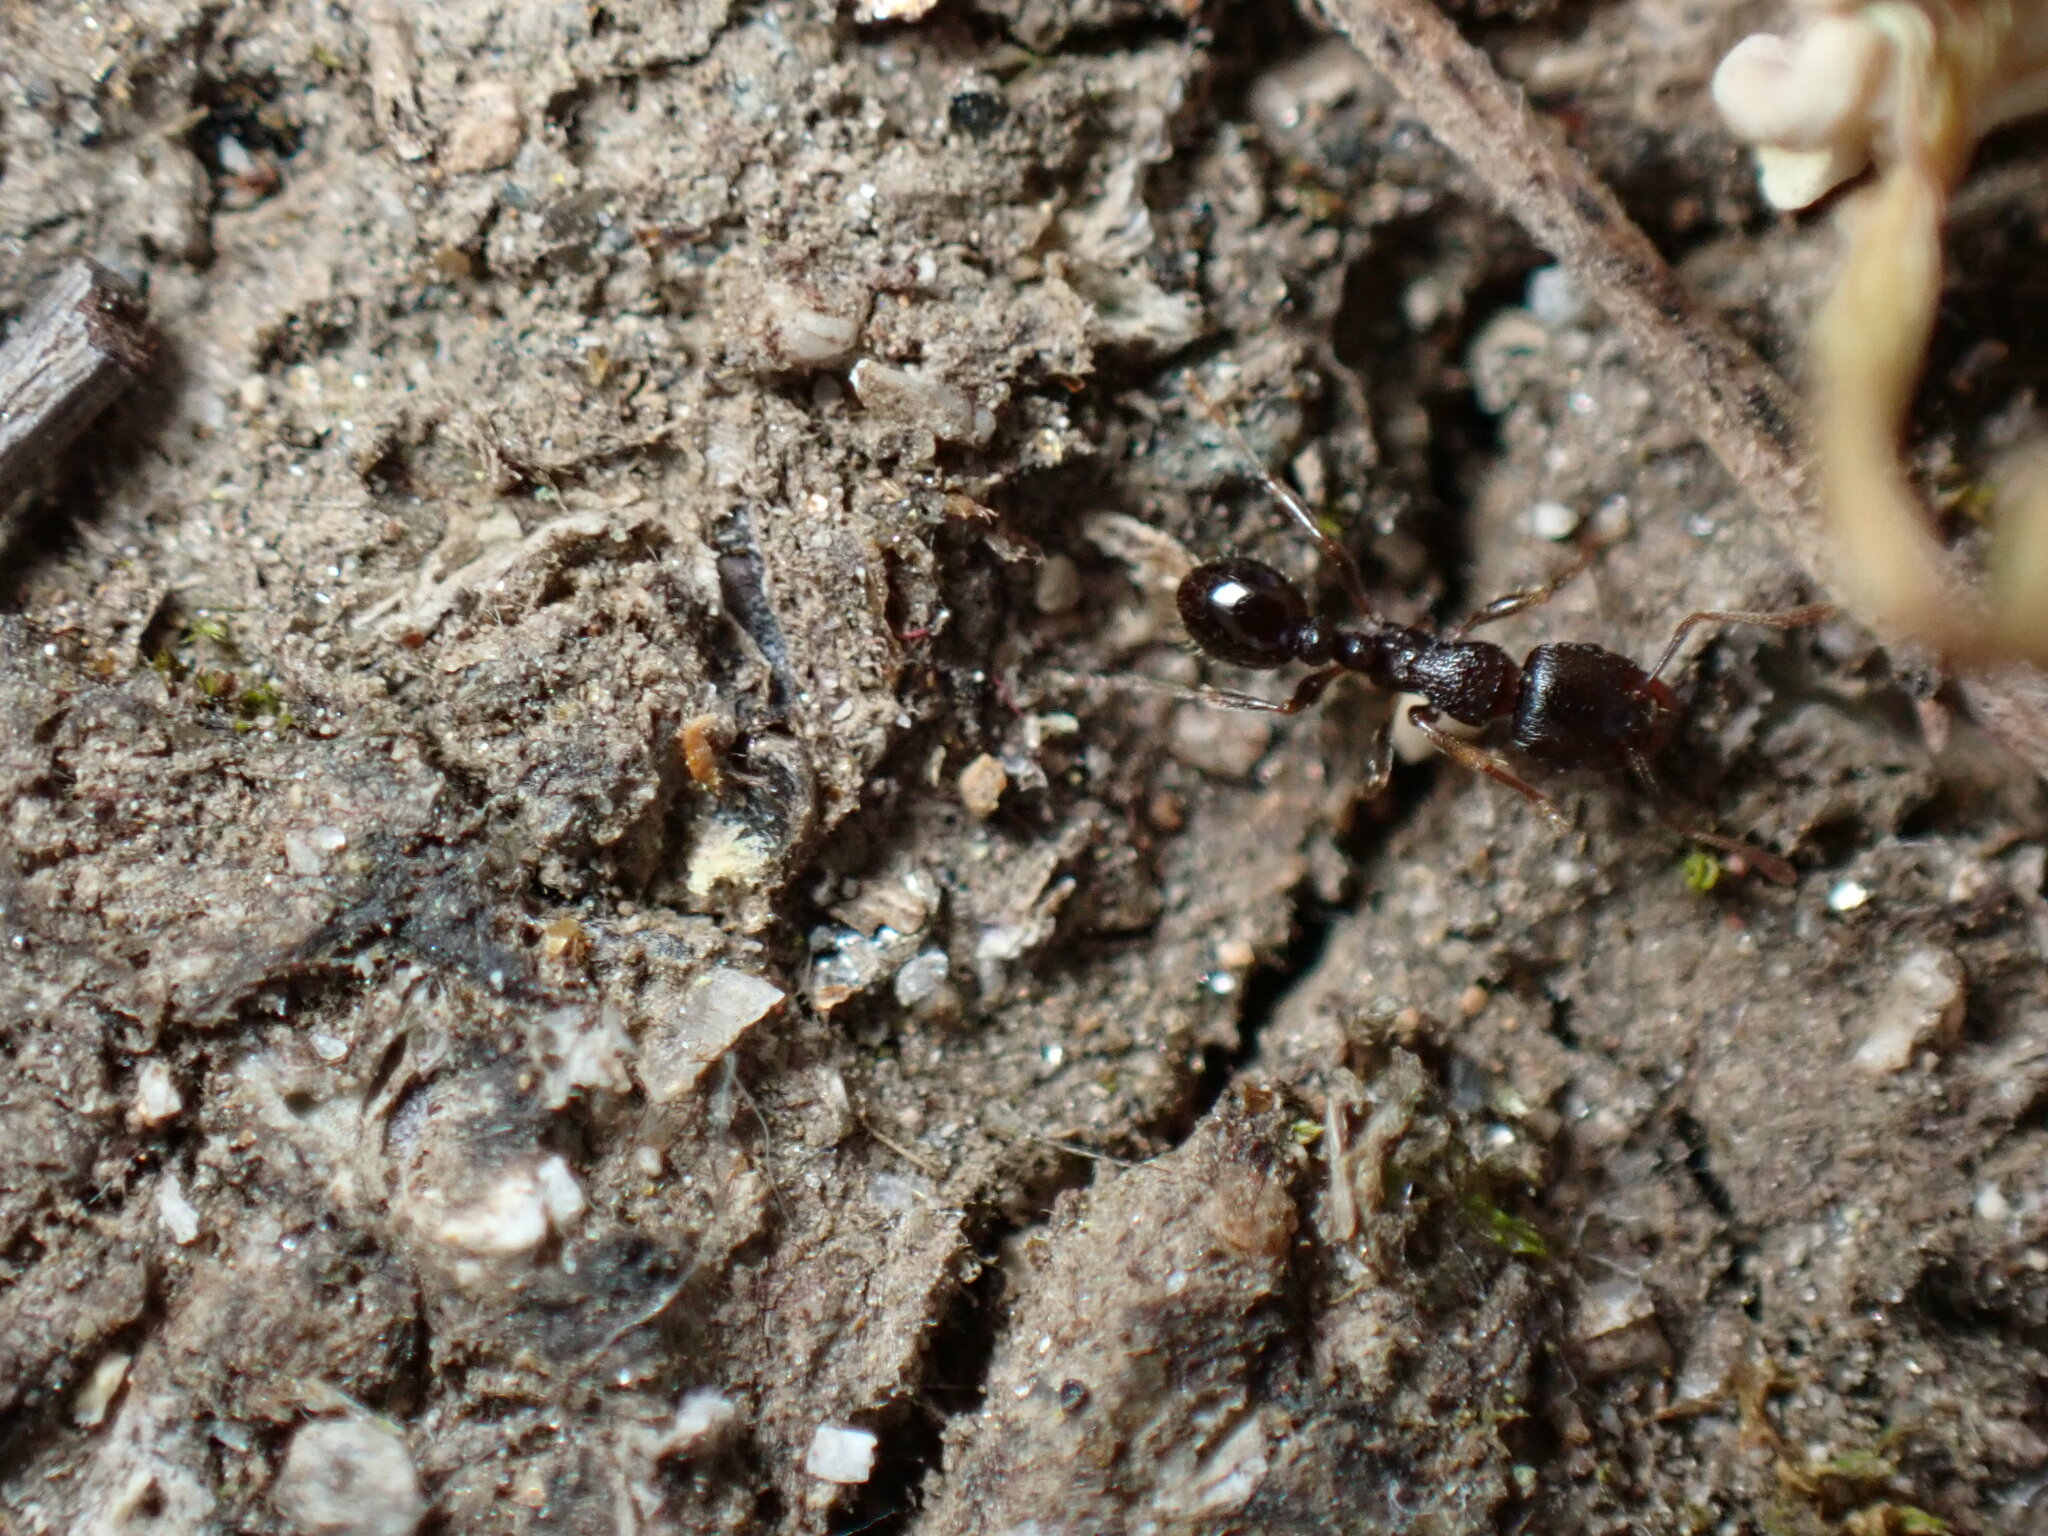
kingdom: Animalia
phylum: Arthropoda
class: Insecta
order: Hymenoptera
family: Formicidae
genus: Tetramorium
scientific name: Tetramorium tsushimae
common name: Ant
